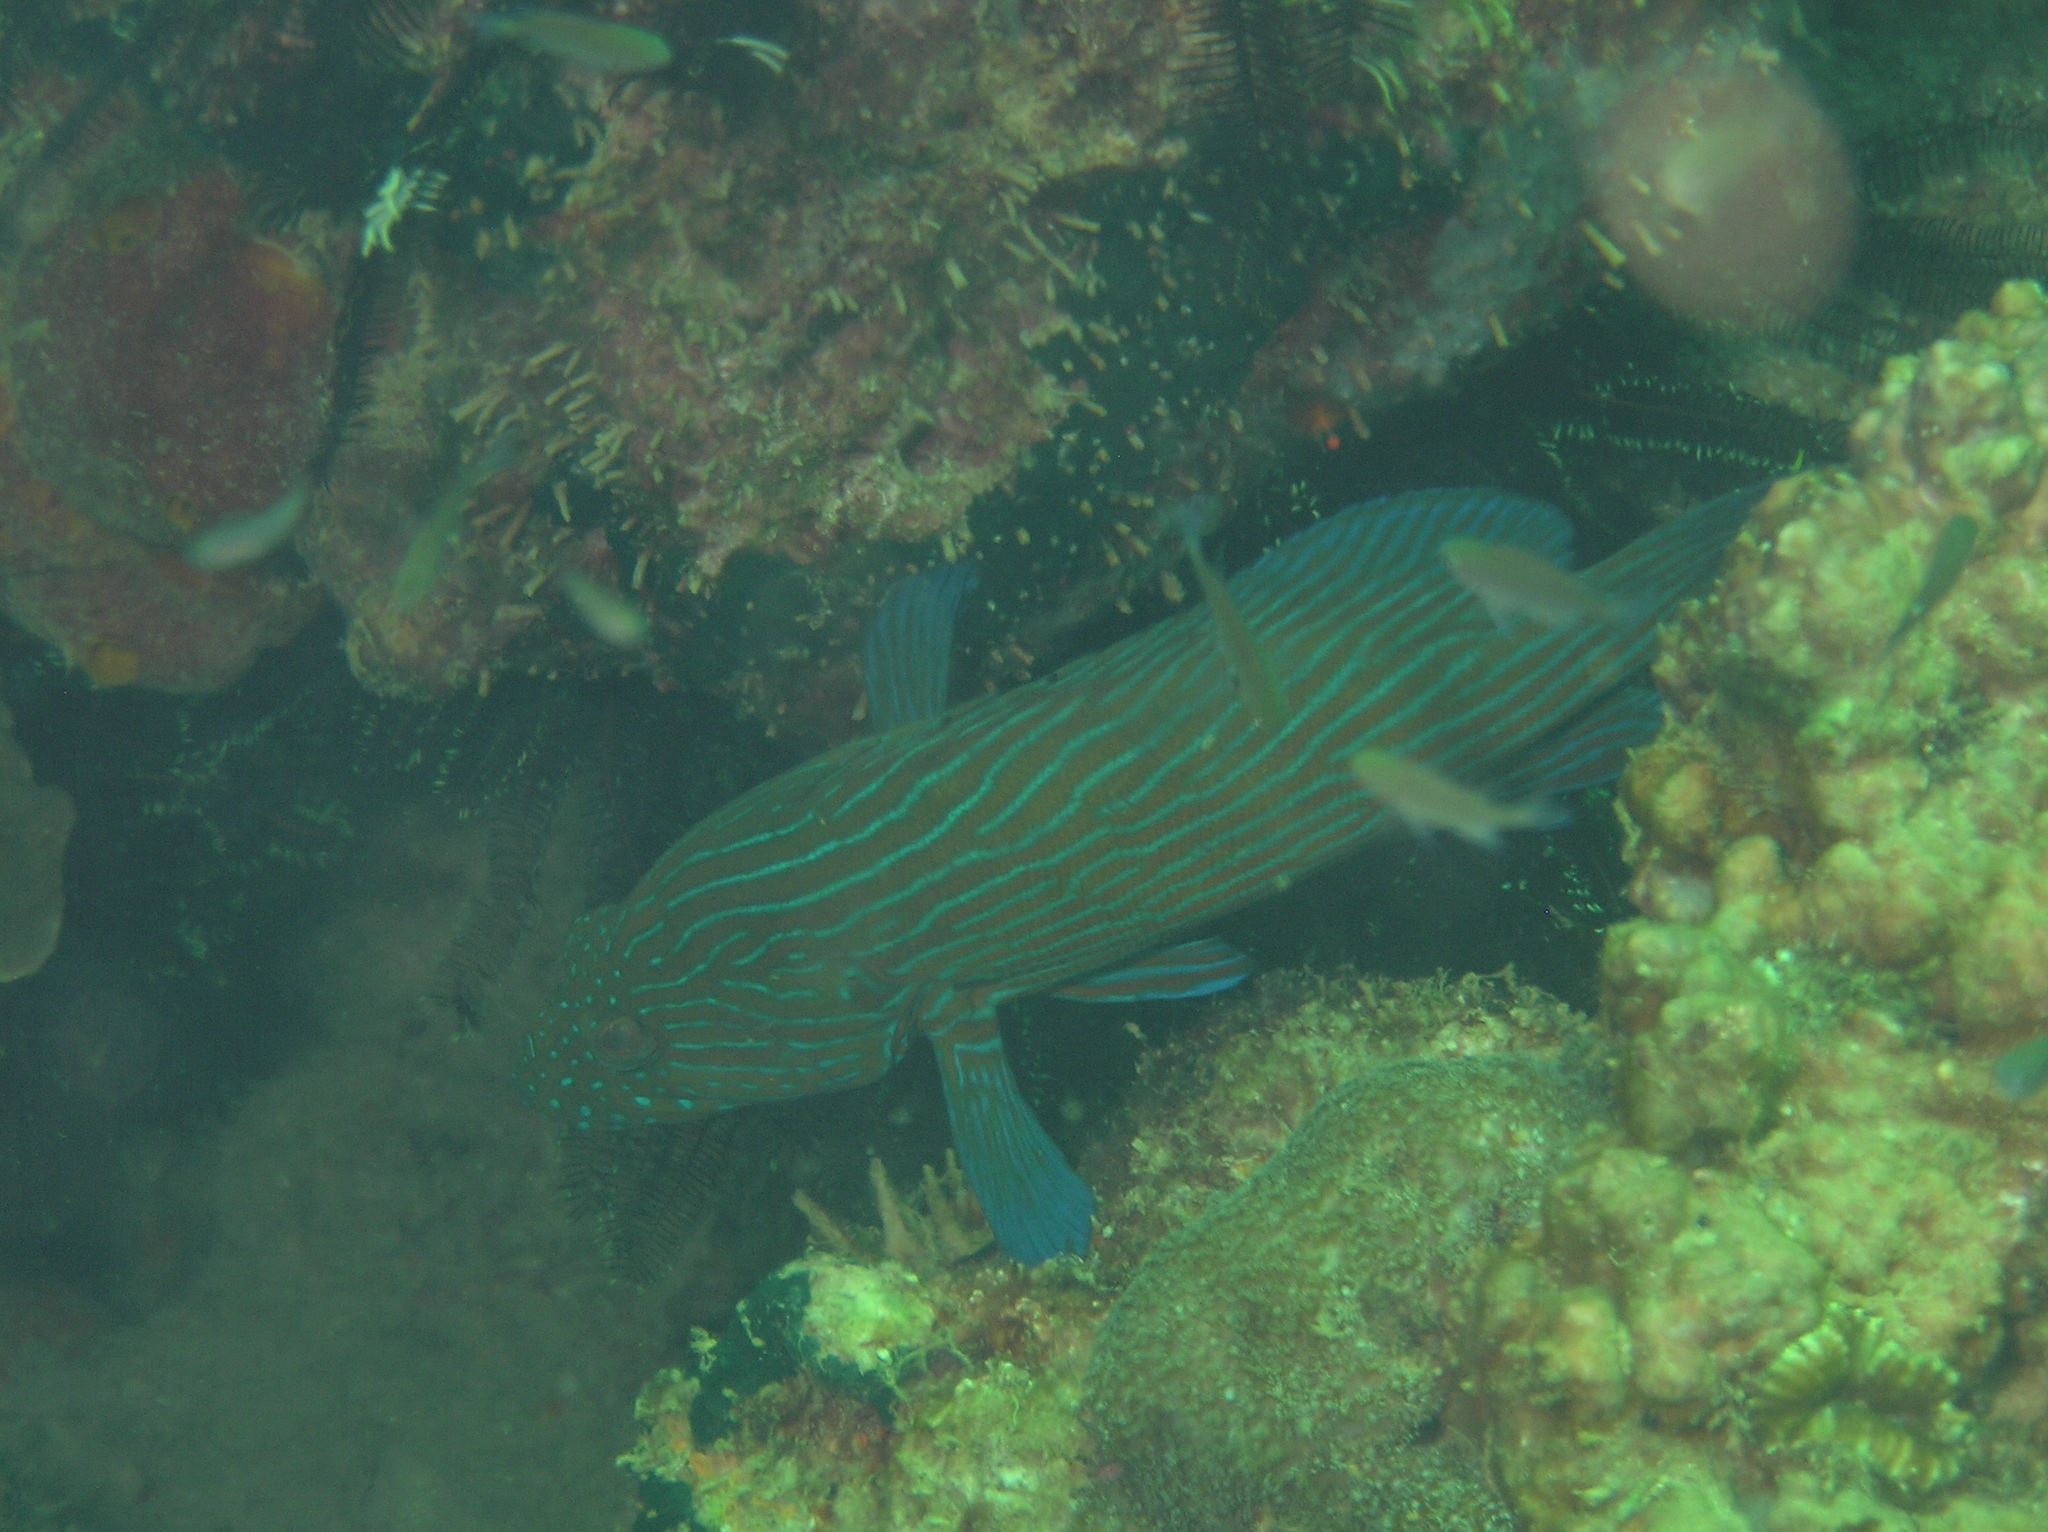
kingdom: Animalia
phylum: Chordata
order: Perciformes
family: Serranidae
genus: Cephalopholis
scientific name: Cephalopholis formosa
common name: Bluelined hind
